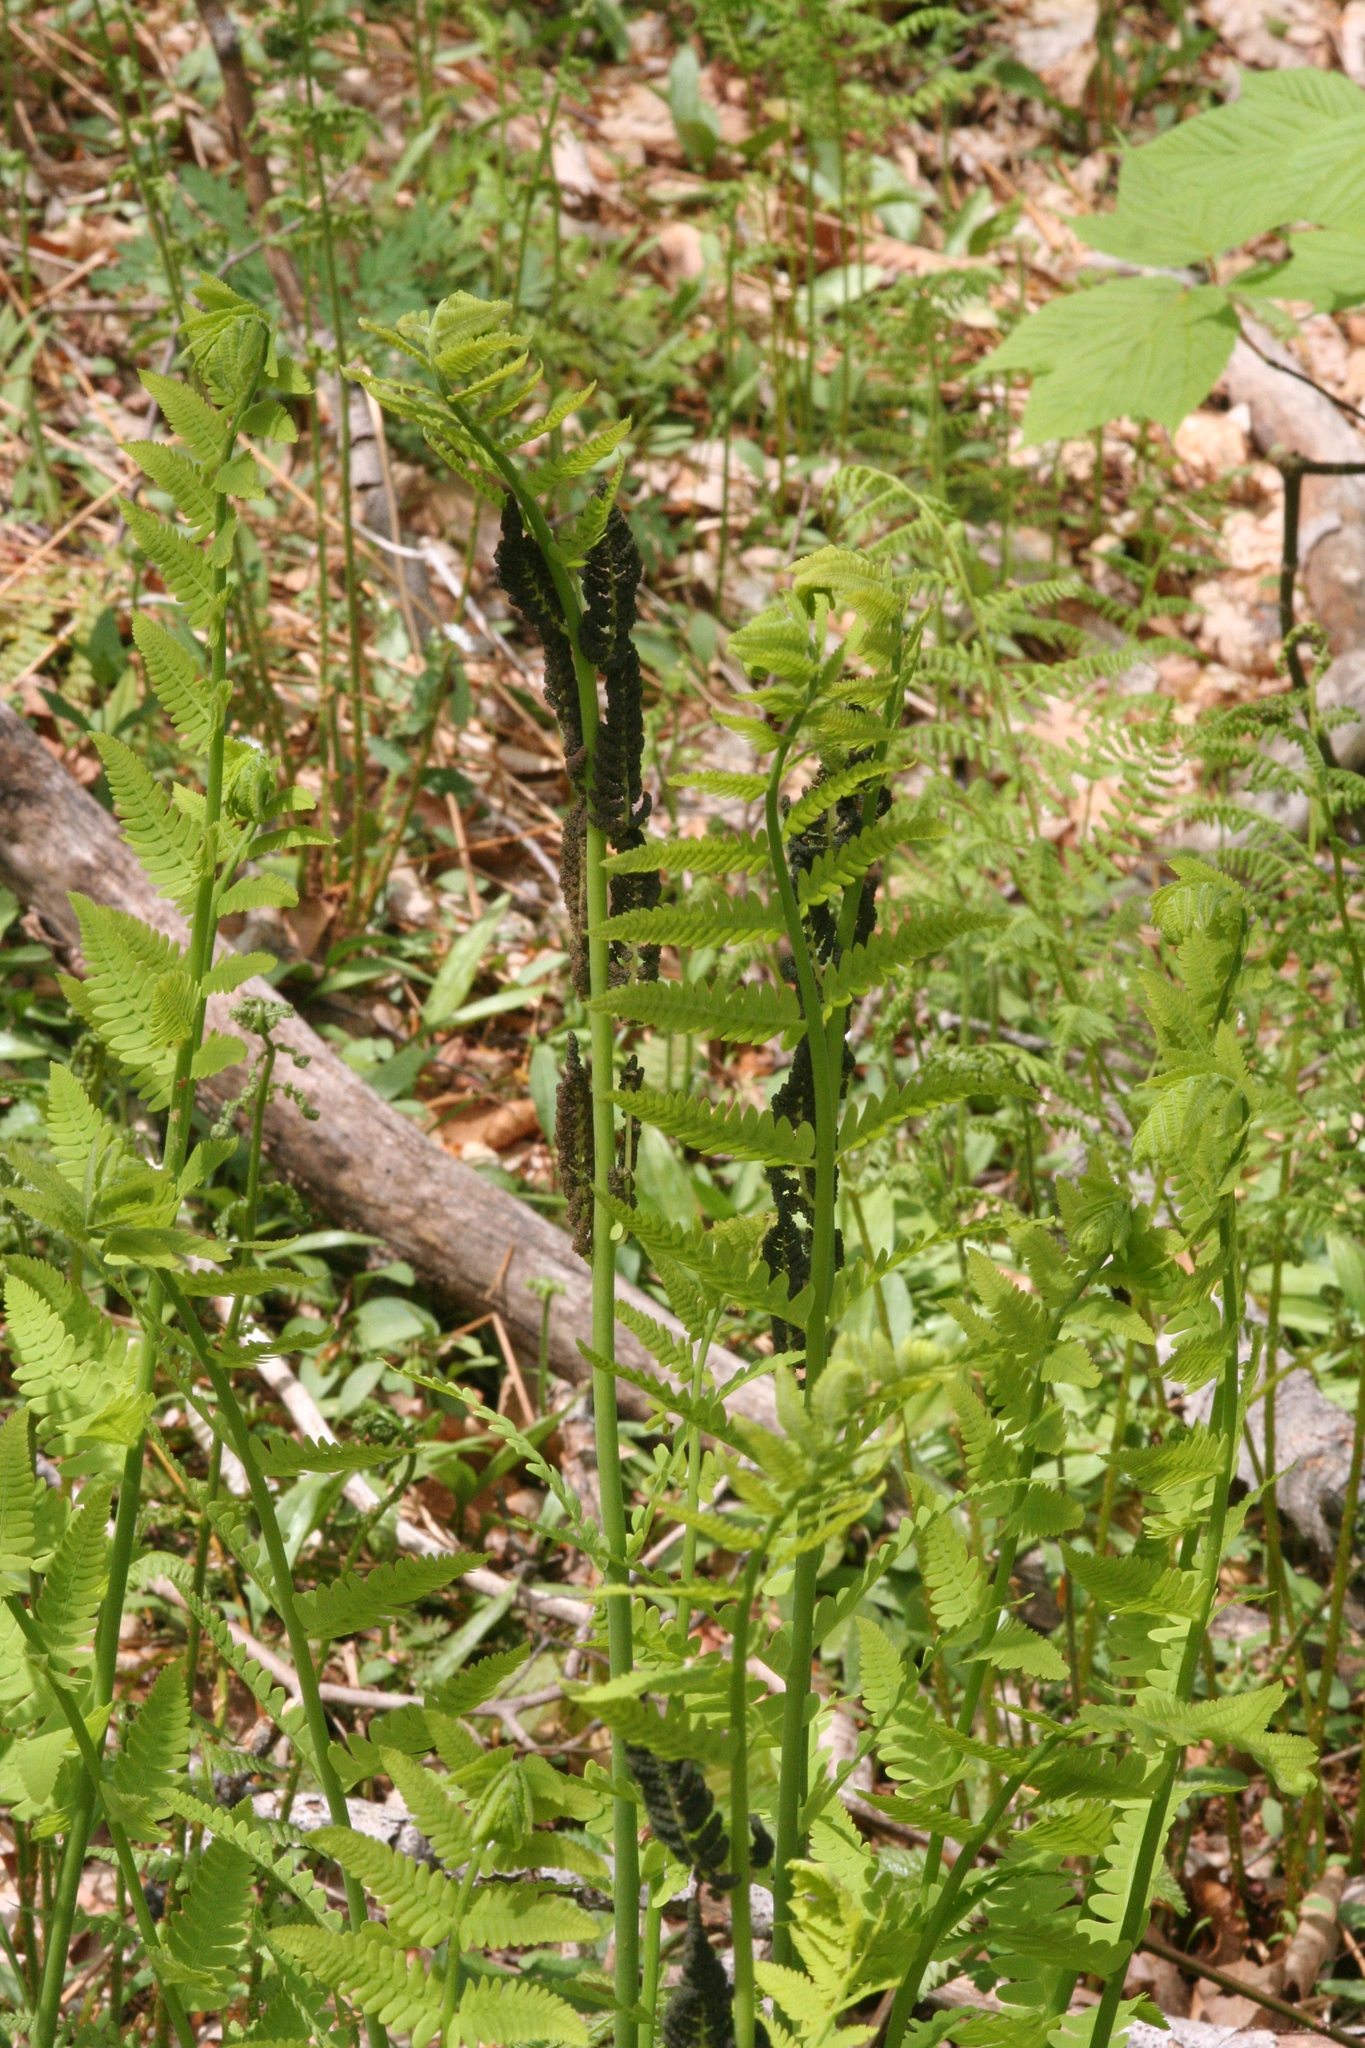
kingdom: Plantae
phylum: Tracheophyta
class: Polypodiopsida
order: Osmundales
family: Osmundaceae
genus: Claytosmunda
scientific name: Claytosmunda claytoniana
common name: Clayton's fern
